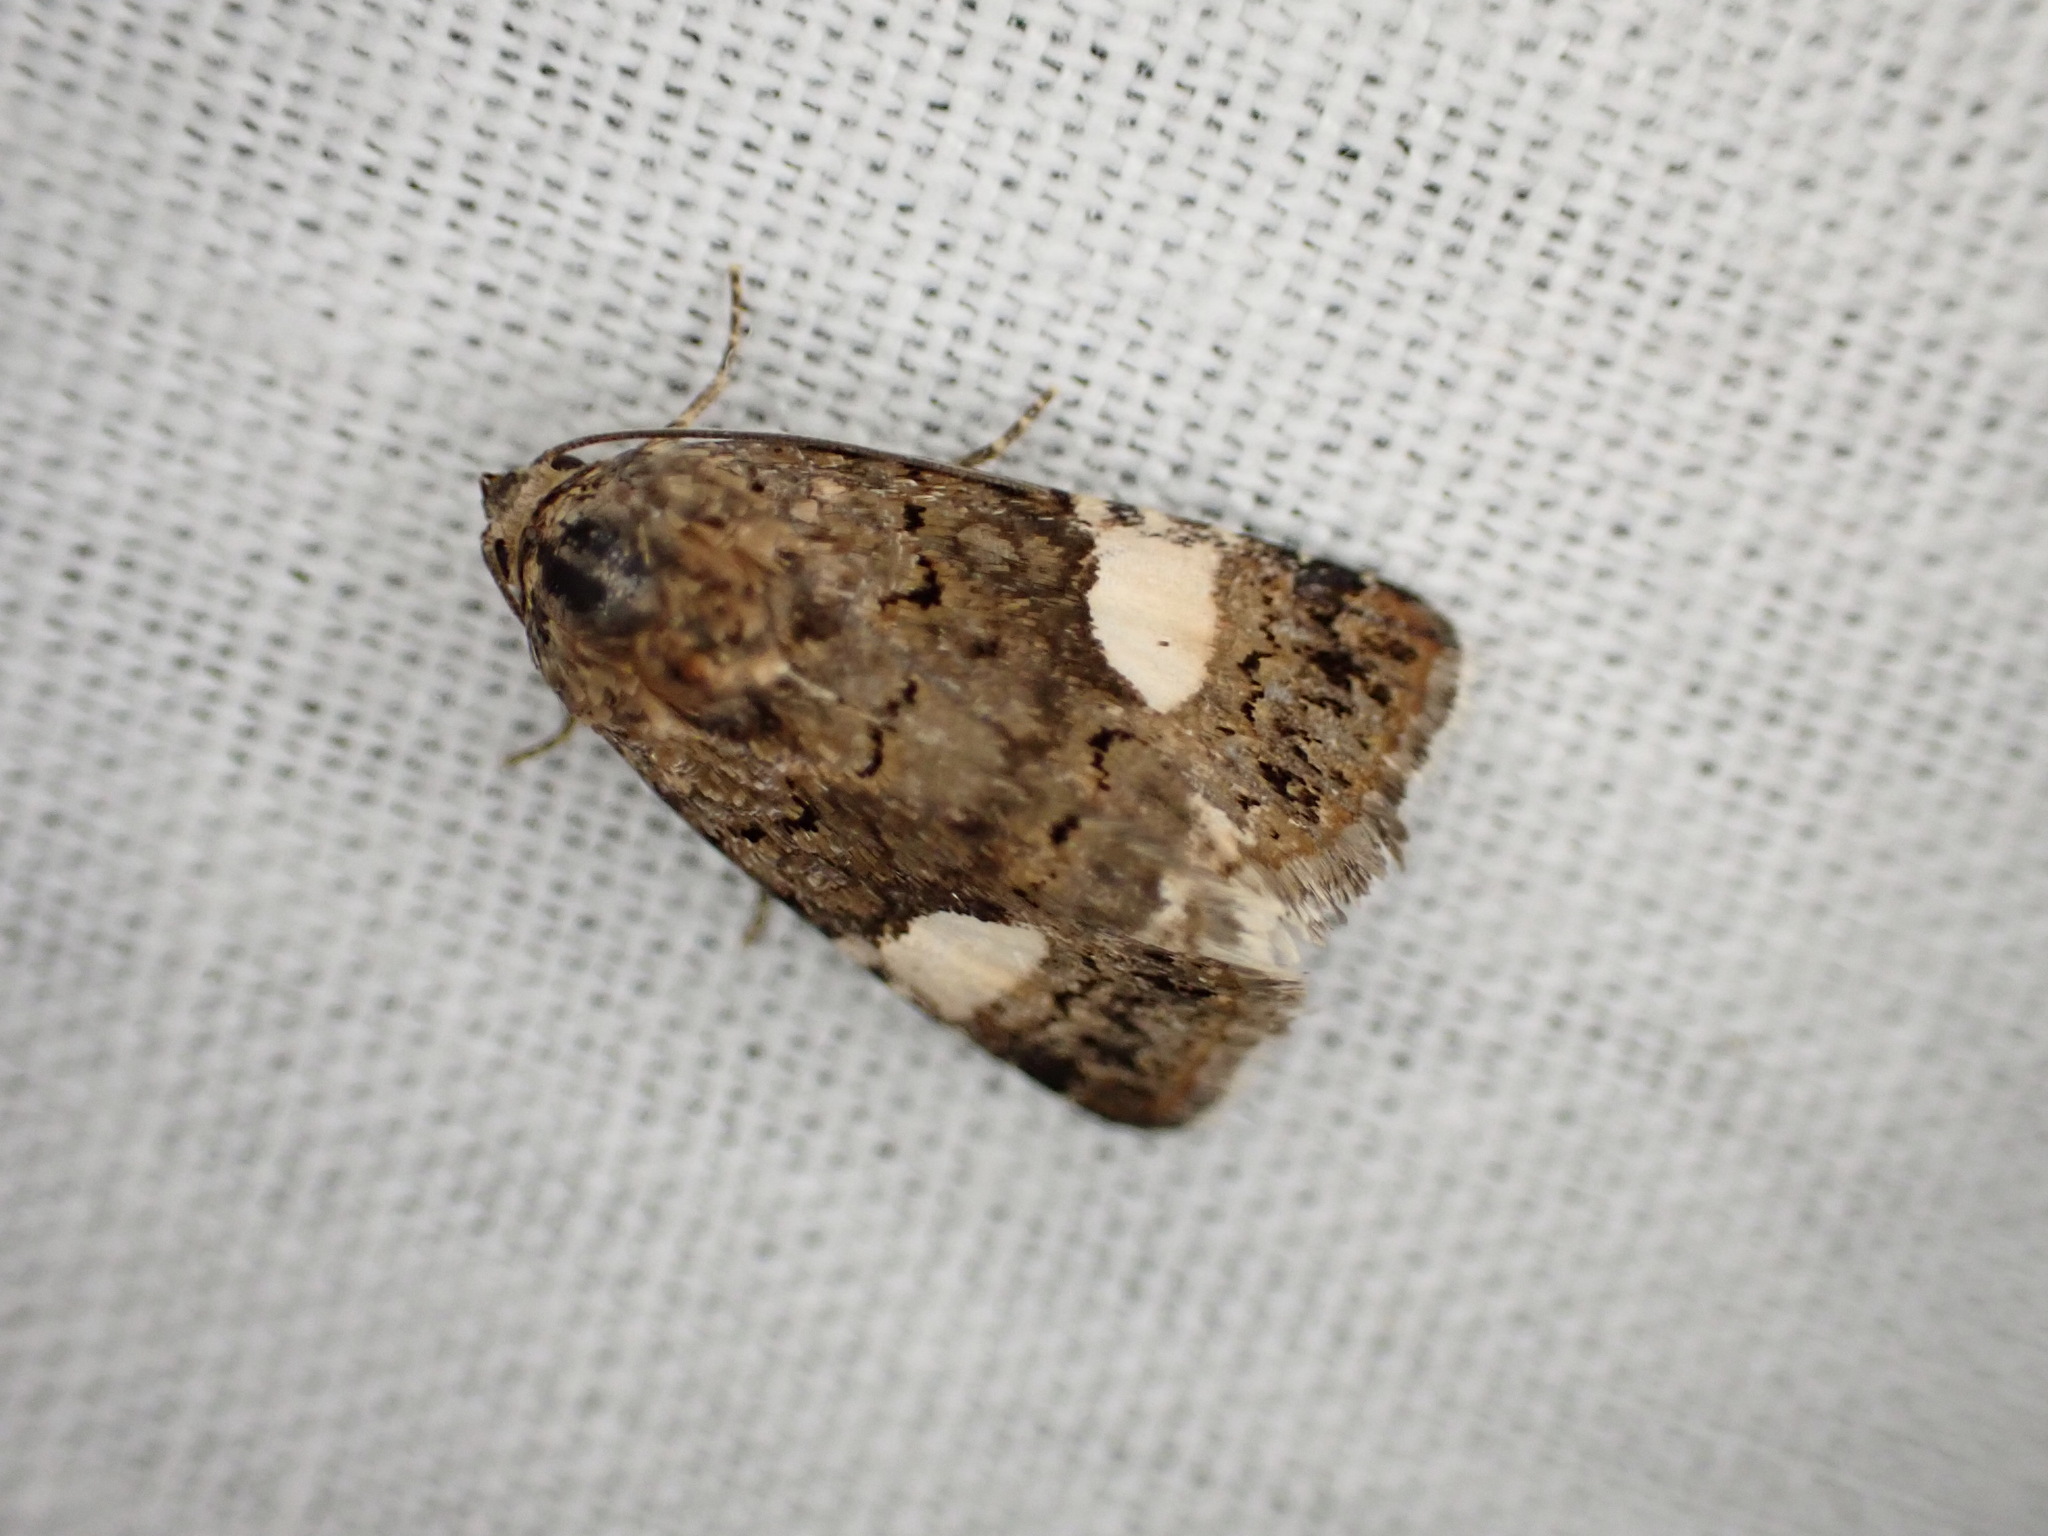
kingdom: Animalia
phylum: Arthropoda
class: Insecta
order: Lepidoptera
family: Erebidae
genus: Tyta
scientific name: Tyta luctuosa
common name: Four-spotted
